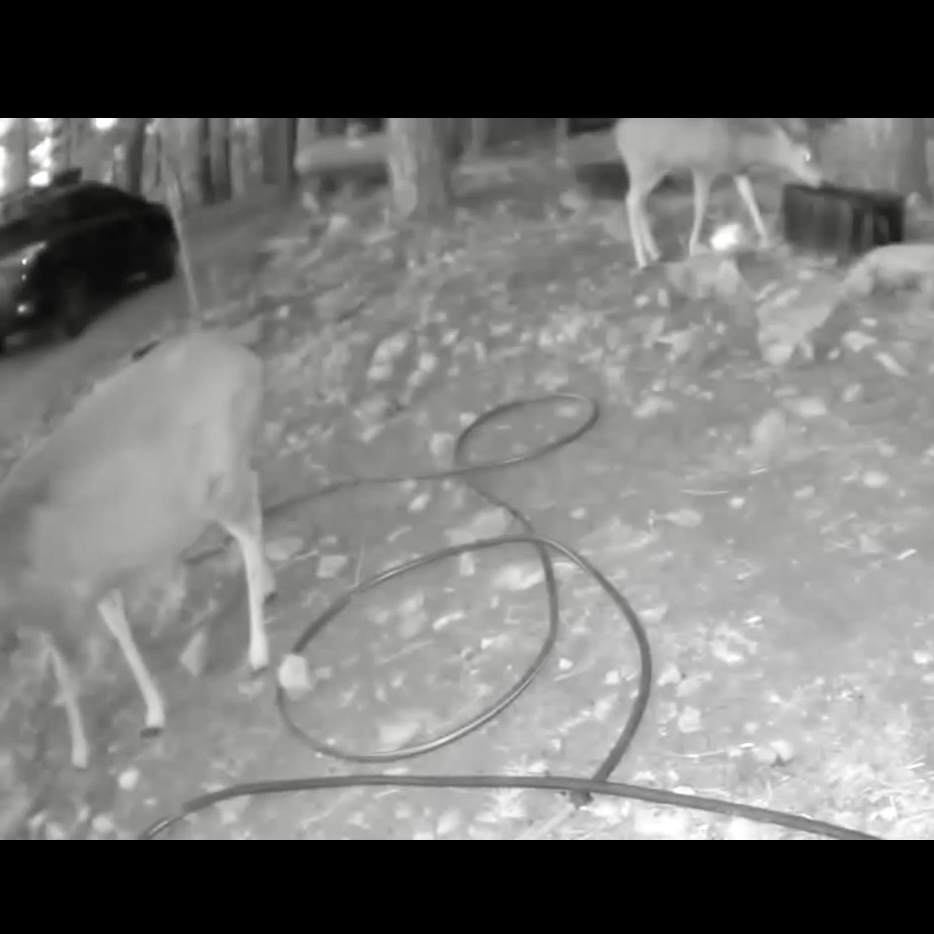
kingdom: Animalia
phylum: Chordata
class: Mammalia
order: Artiodactyla
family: Cervidae
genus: Odocoileus
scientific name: Odocoileus hemionus
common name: Mule deer
